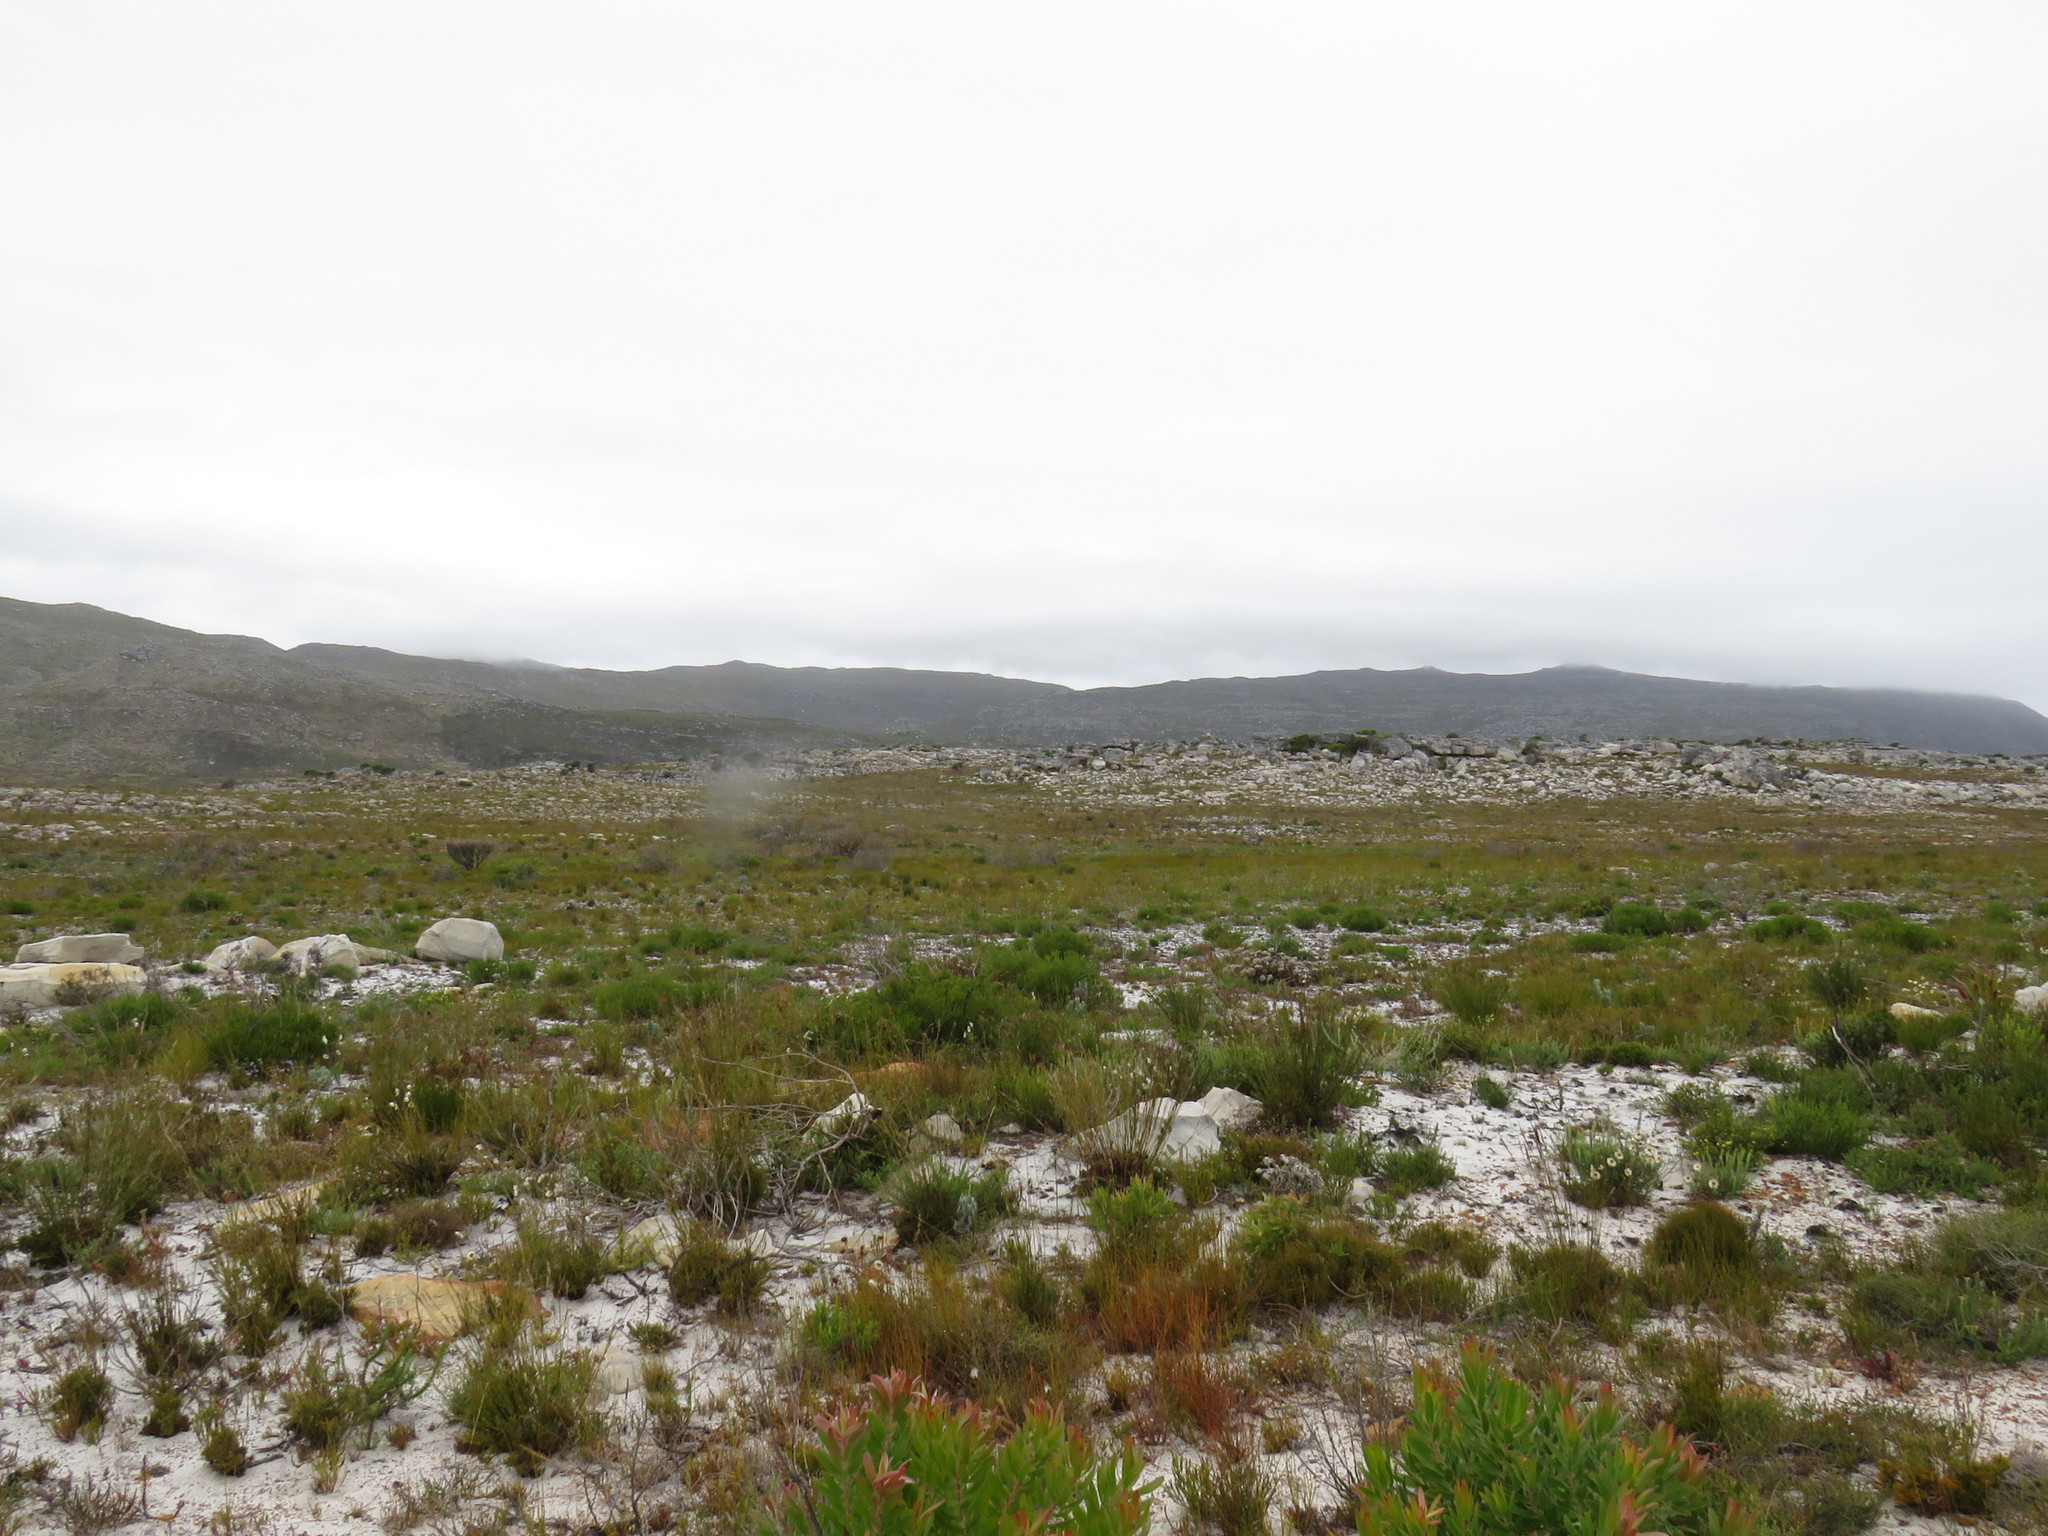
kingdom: Animalia
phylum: Chordata
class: Mammalia
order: Artiodactyla
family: Bovidae
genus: Damaliscus
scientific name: Damaliscus pygargus
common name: Bontebok
